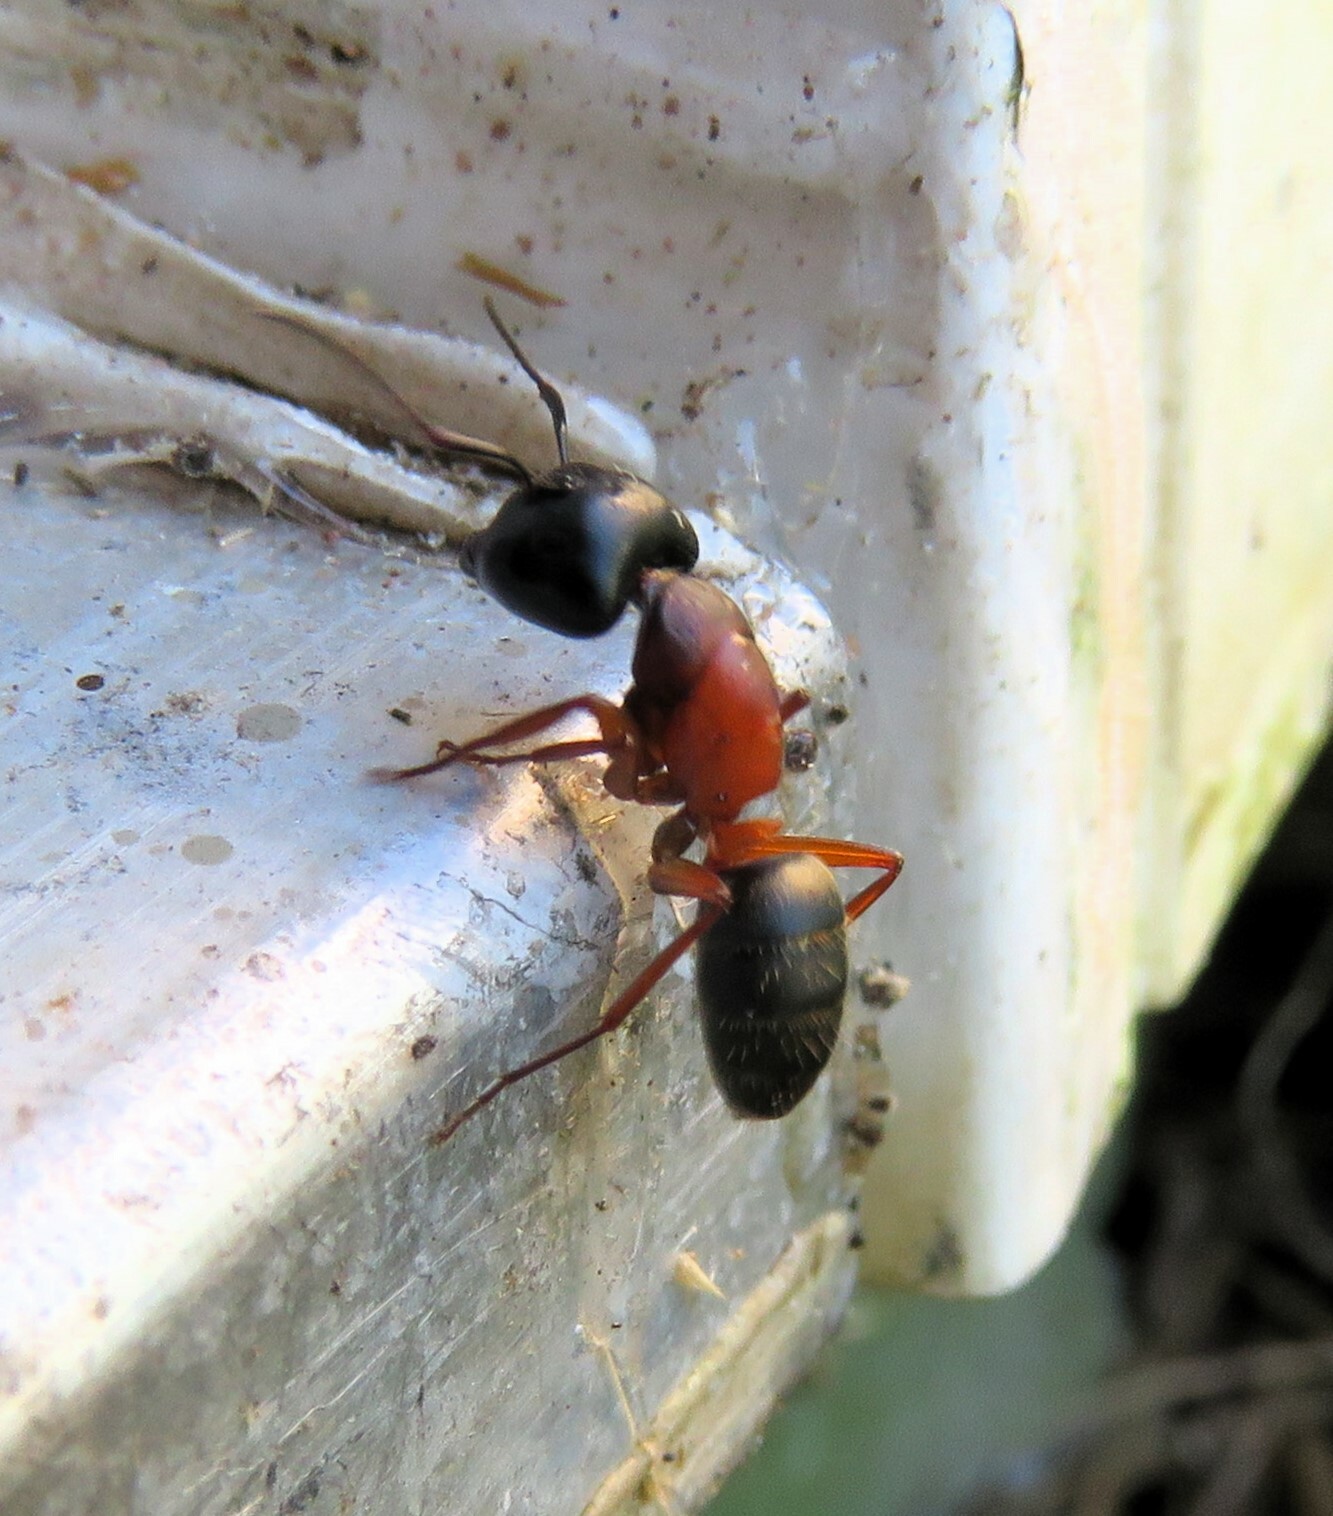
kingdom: Animalia
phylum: Arthropoda
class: Insecta
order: Hymenoptera
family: Formicidae
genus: Camponotus
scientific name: Camponotus herculeanus
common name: Hercules ant
